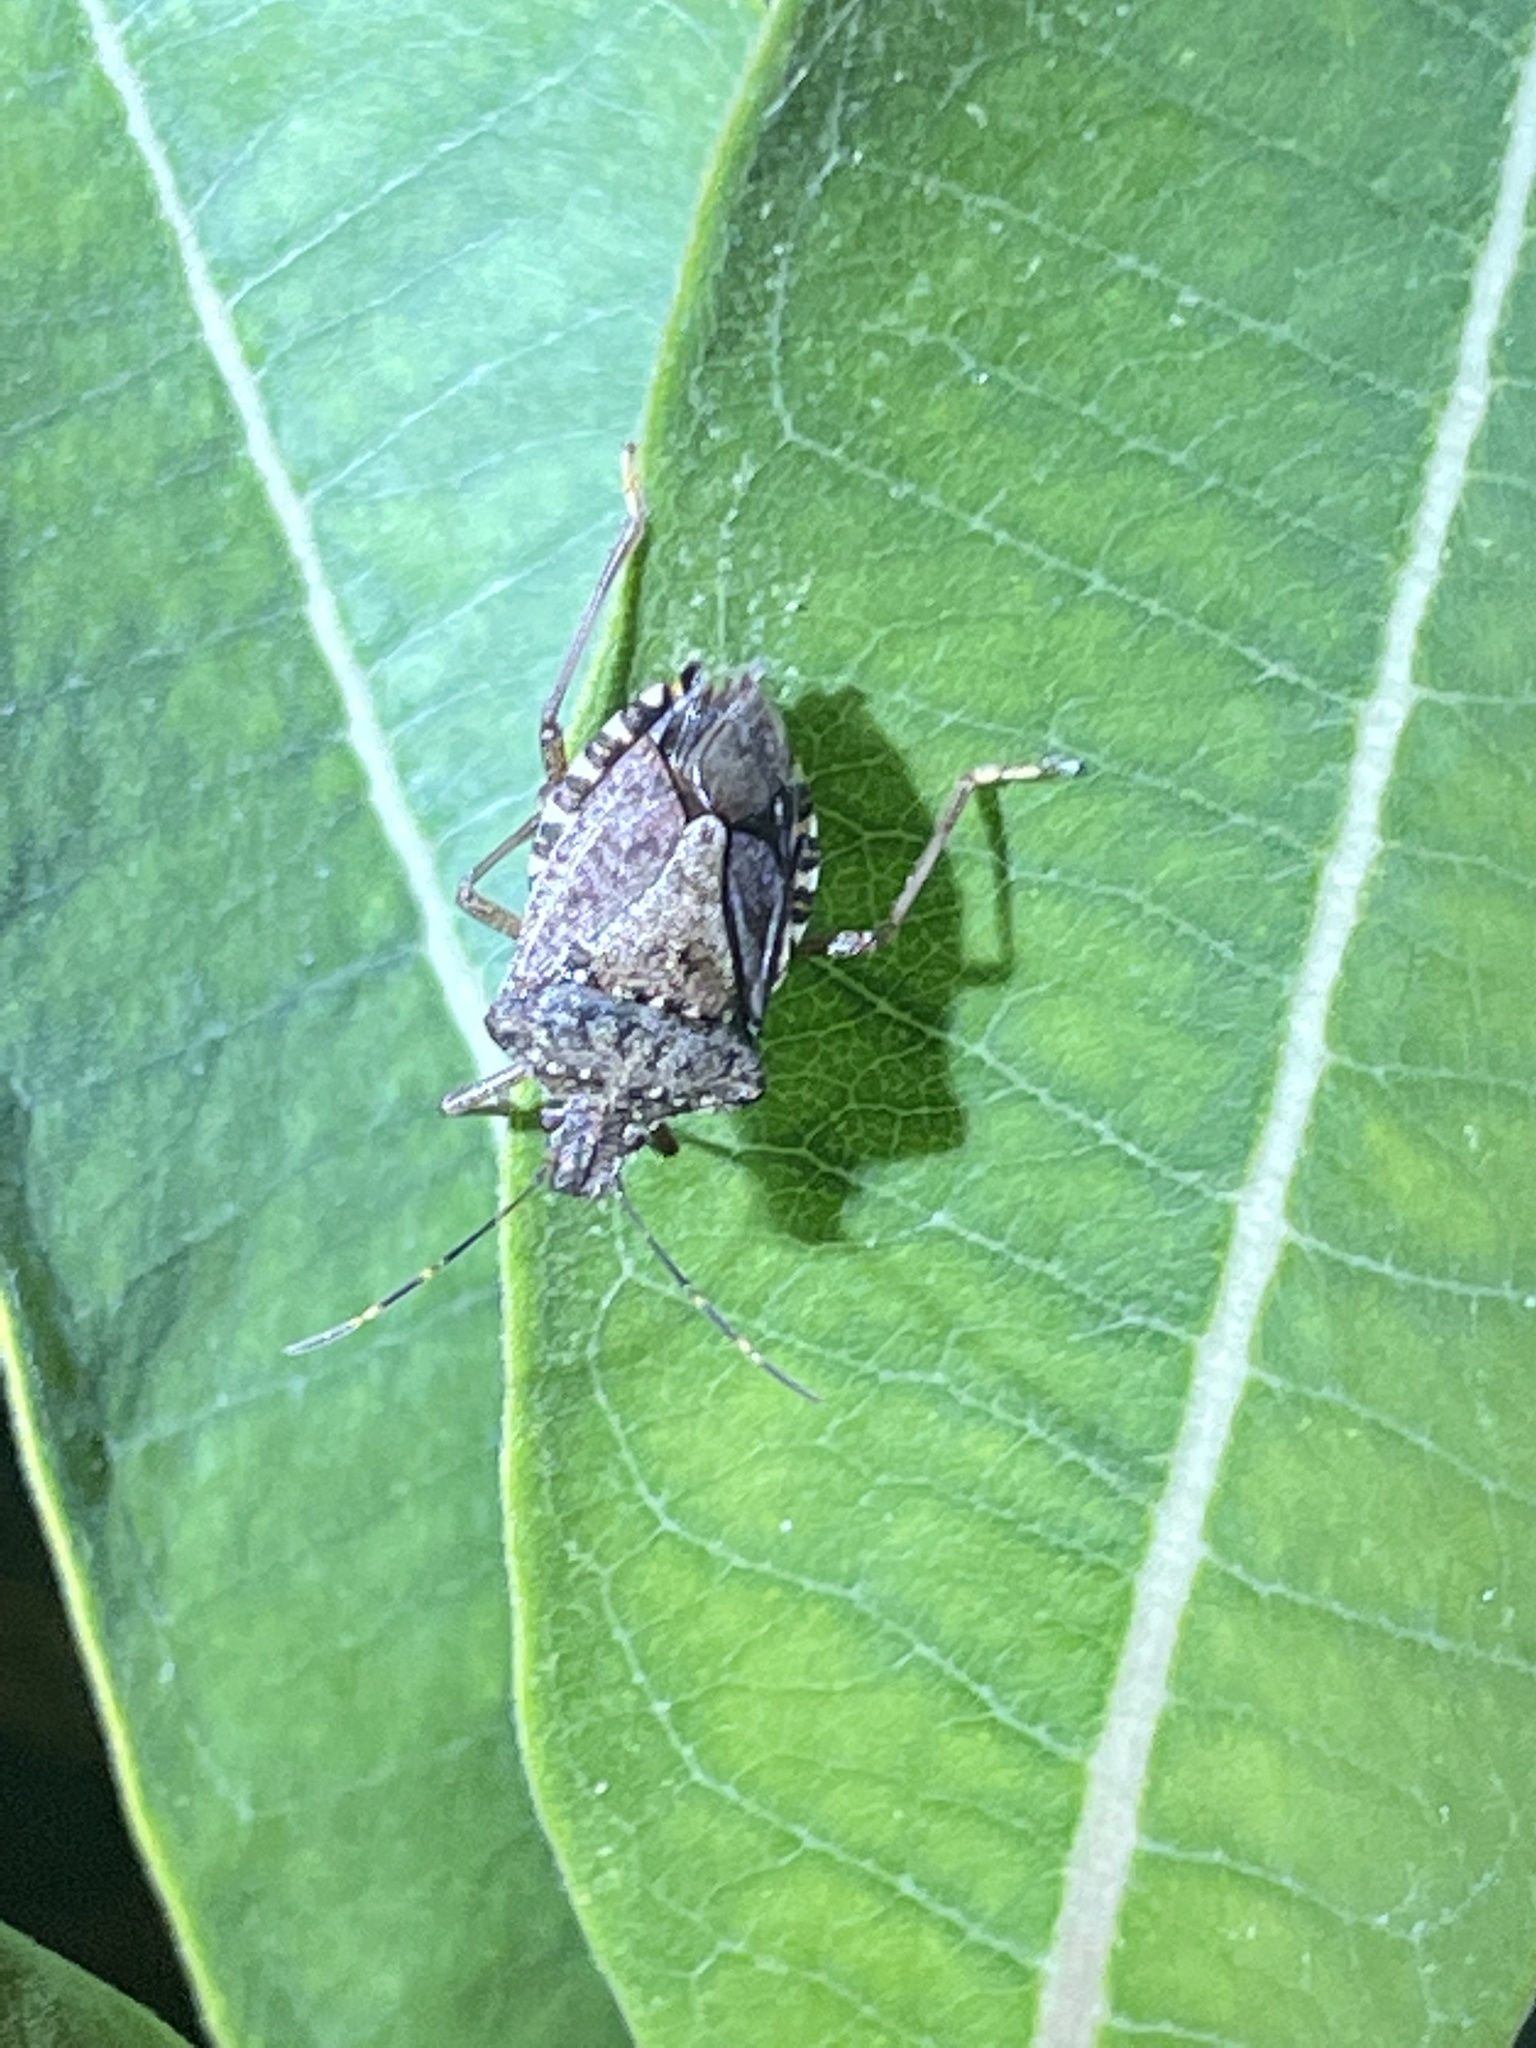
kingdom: Animalia
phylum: Arthropoda
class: Insecta
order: Hemiptera
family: Pentatomidae
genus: Halyomorpha
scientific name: Halyomorpha halys
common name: Brown marmorated stink bug
